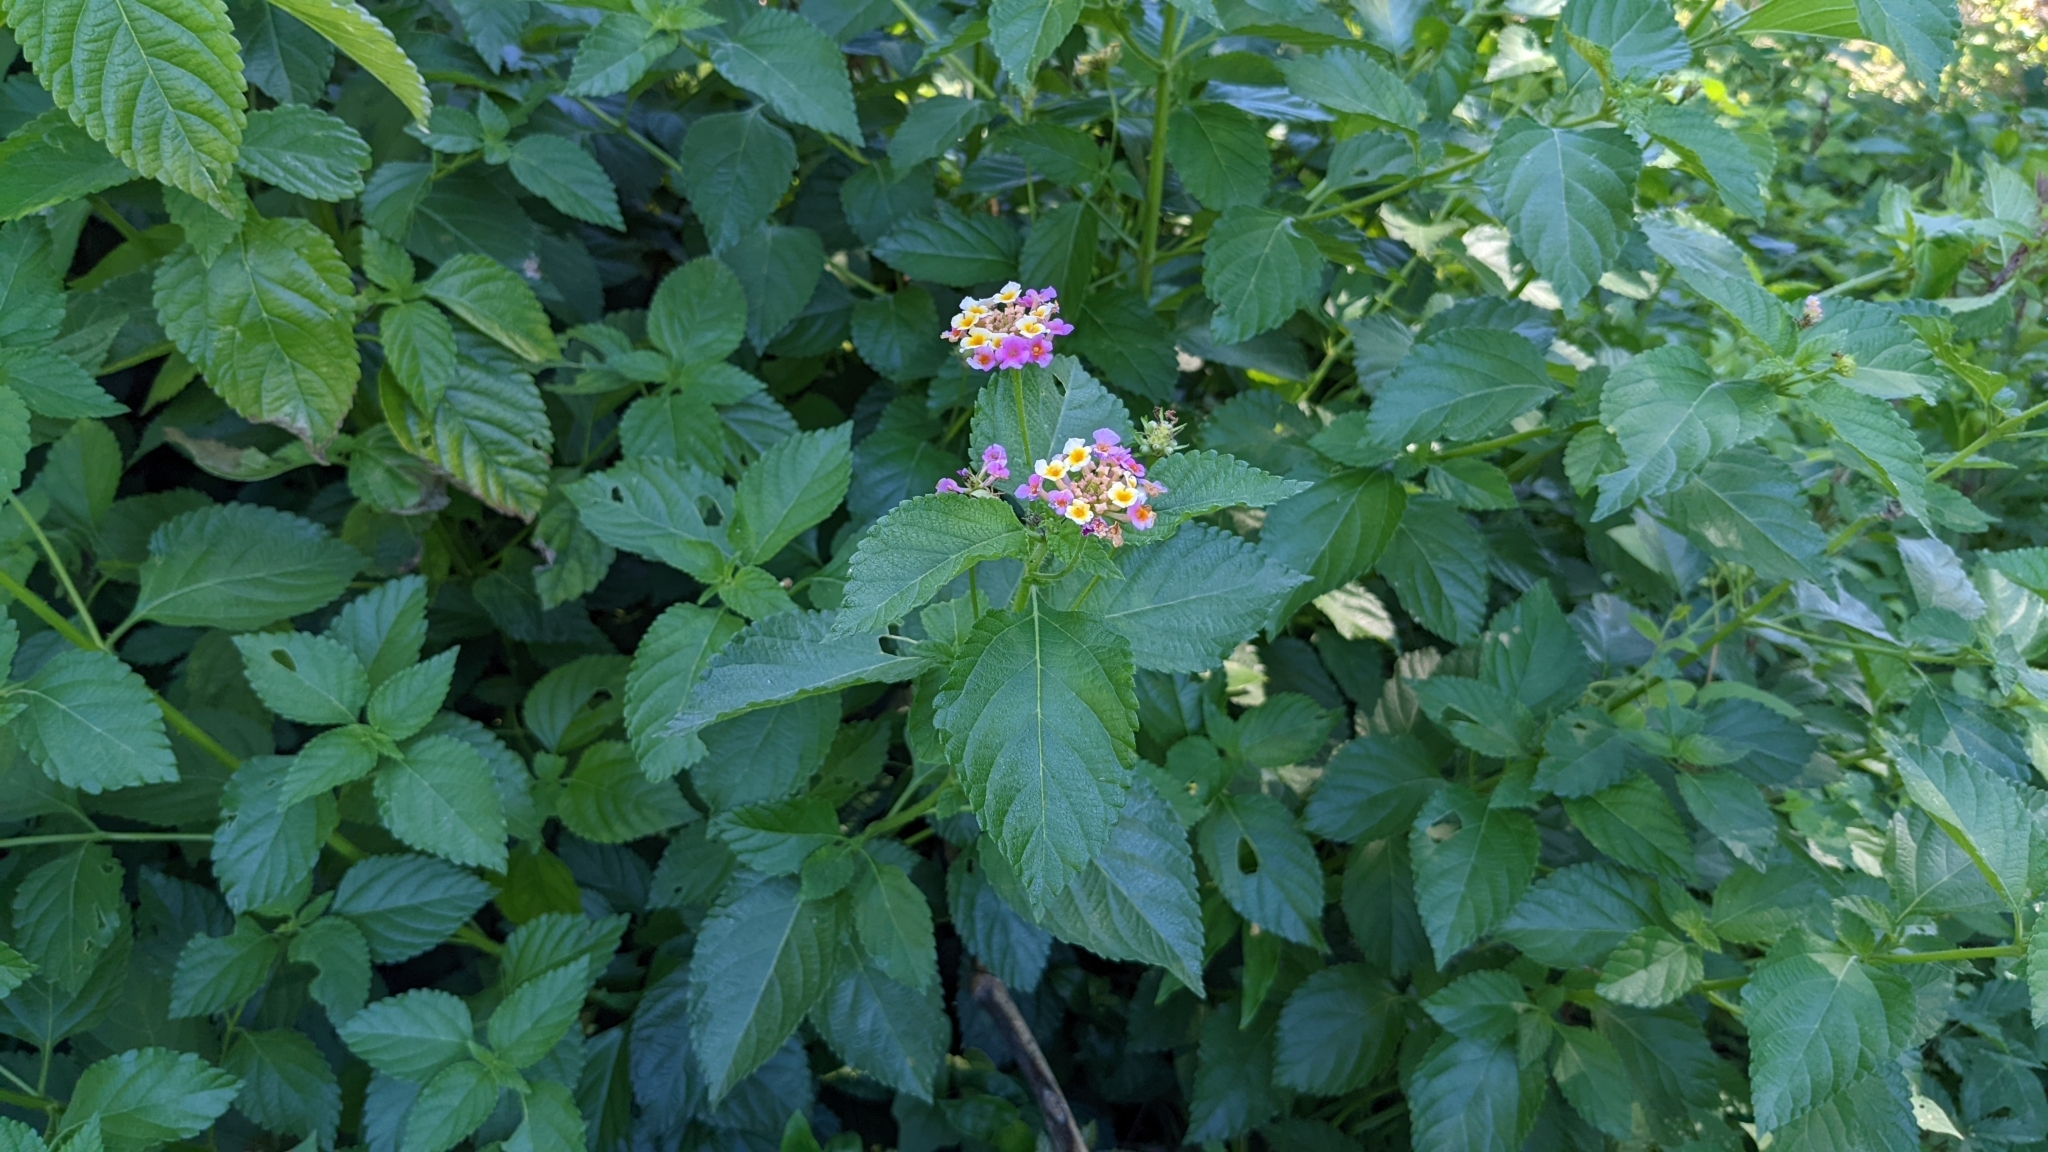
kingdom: Plantae
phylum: Tracheophyta
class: Magnoliopsida
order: Lamiales
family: Verbenaceae
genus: Lantana
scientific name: Lantana strigocamara
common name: Lantana
